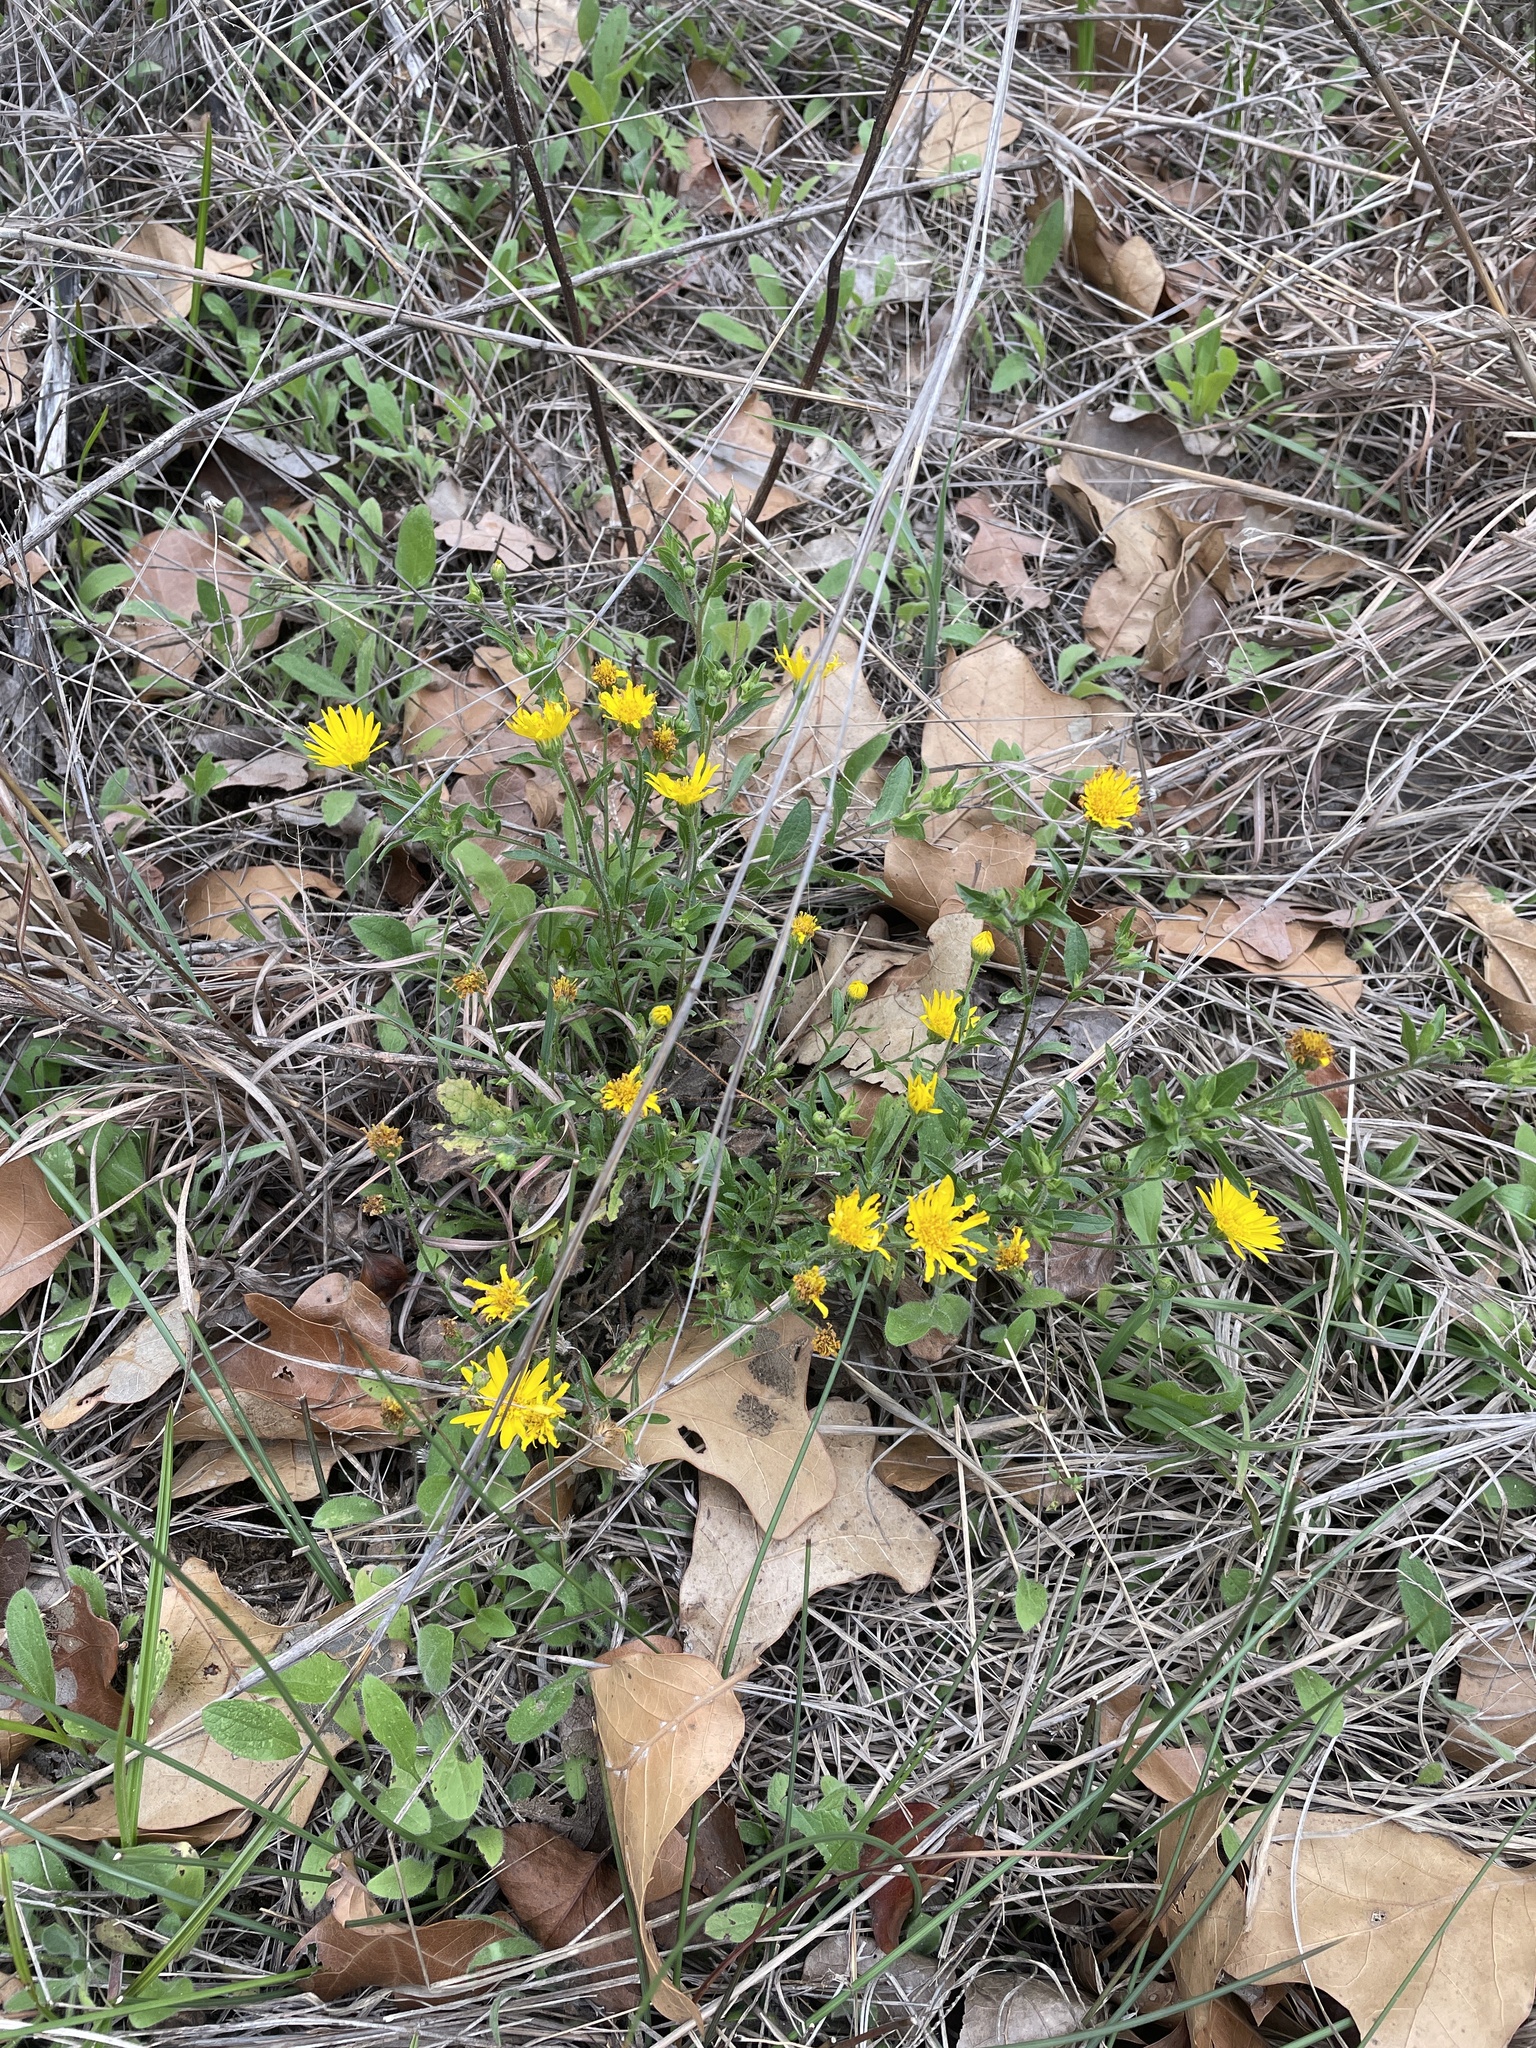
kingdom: Plantae
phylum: Tracheophyta
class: Magnoliopsida
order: Asterales
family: Asteraceae
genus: Heterotheca
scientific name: Heterotheca subaxillaris
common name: Camphorweed
